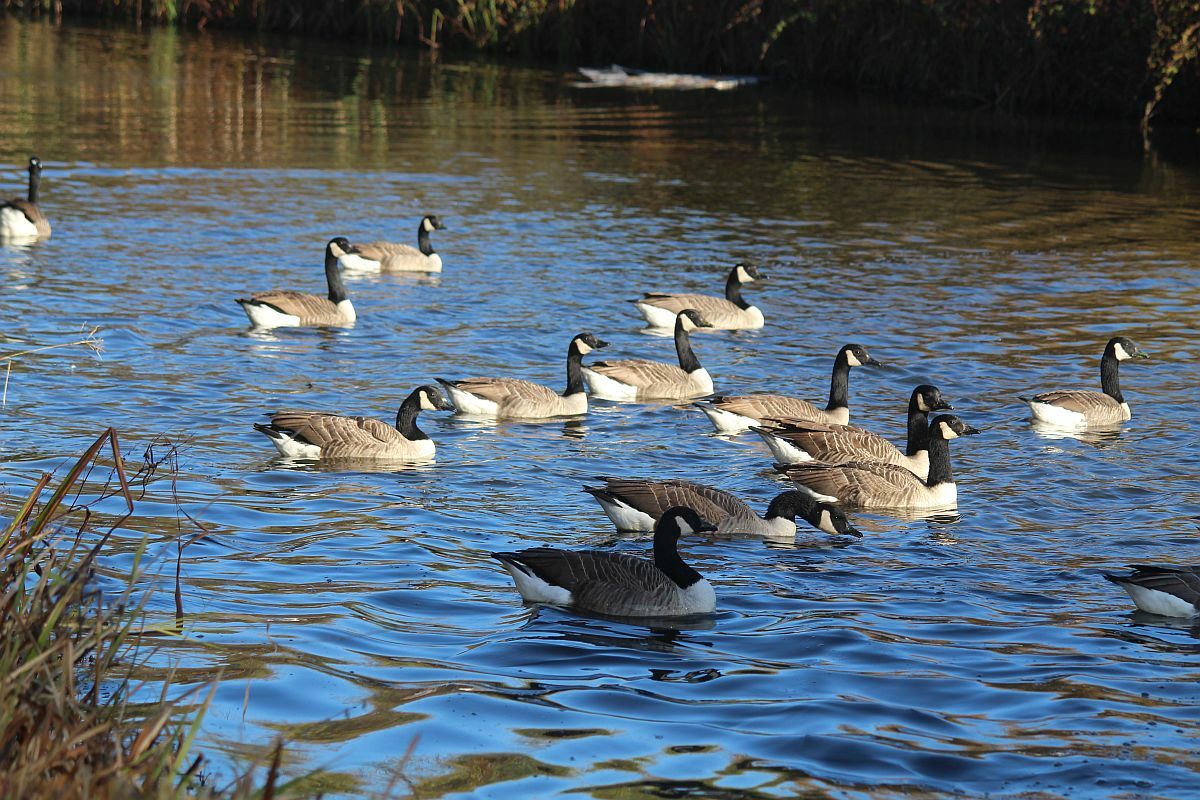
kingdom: Animalia
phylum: Chordata
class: Aves
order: Anseriformes
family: Anatidae
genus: Branta
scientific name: Branta canadensis
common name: Canada goose
